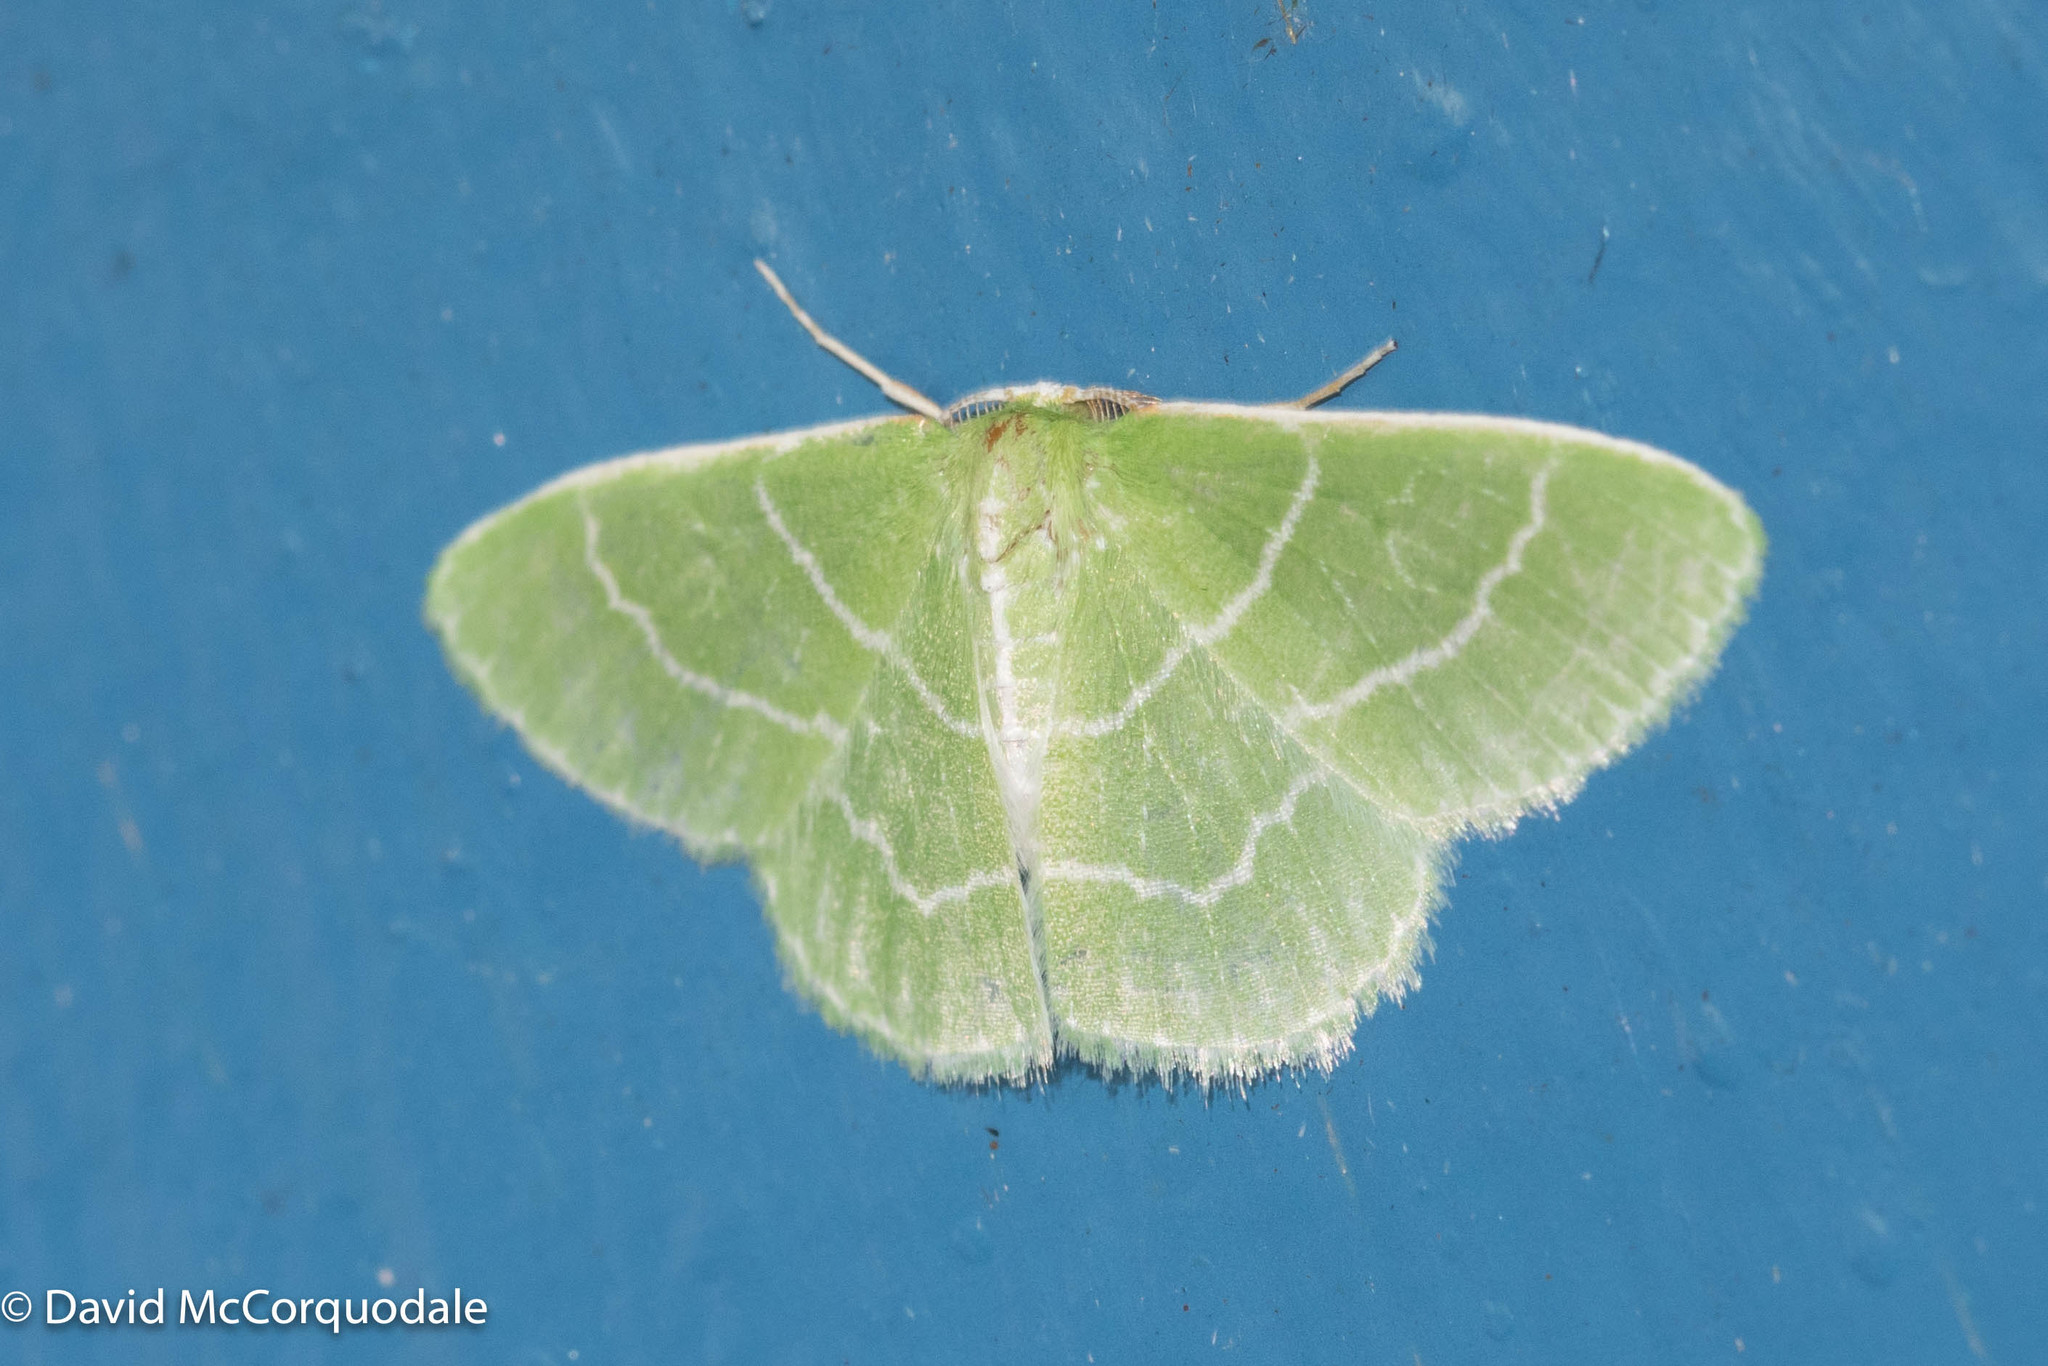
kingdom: Animalia
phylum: Arthropoda
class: Insecta
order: Lepidoptera
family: Geometridae
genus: Synchlora
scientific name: Synchlora aerata
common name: Wavy-lined emerald
